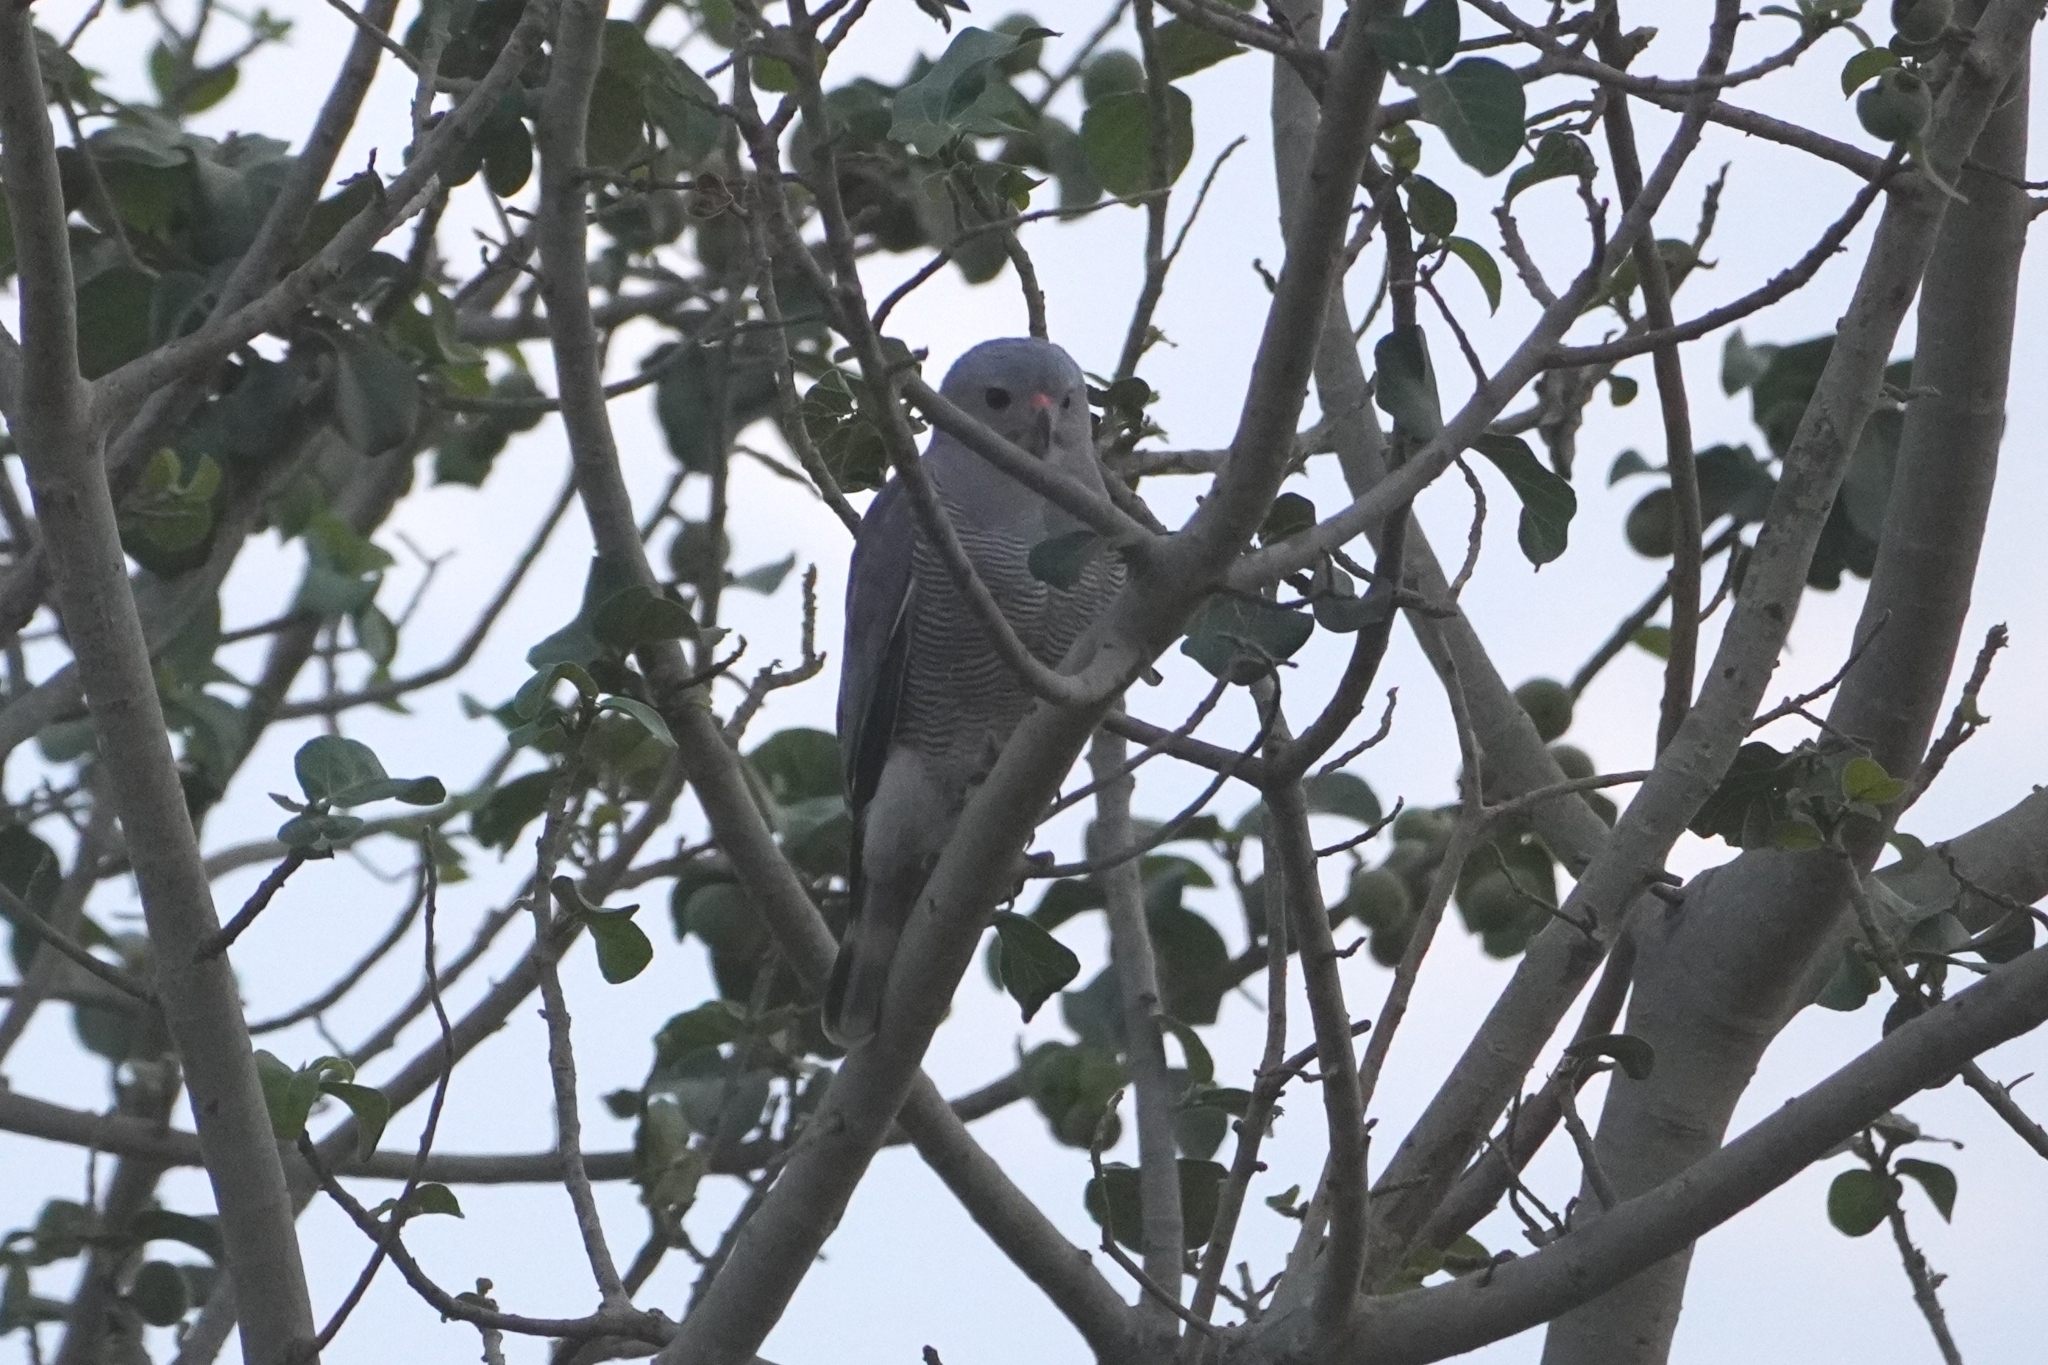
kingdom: Animalia
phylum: Chordata
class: Aves
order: Accipitriformes
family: Accipitridae
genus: Kaupifalco
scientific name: Kaupifalco monogrammicus
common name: Lizard buzzard
